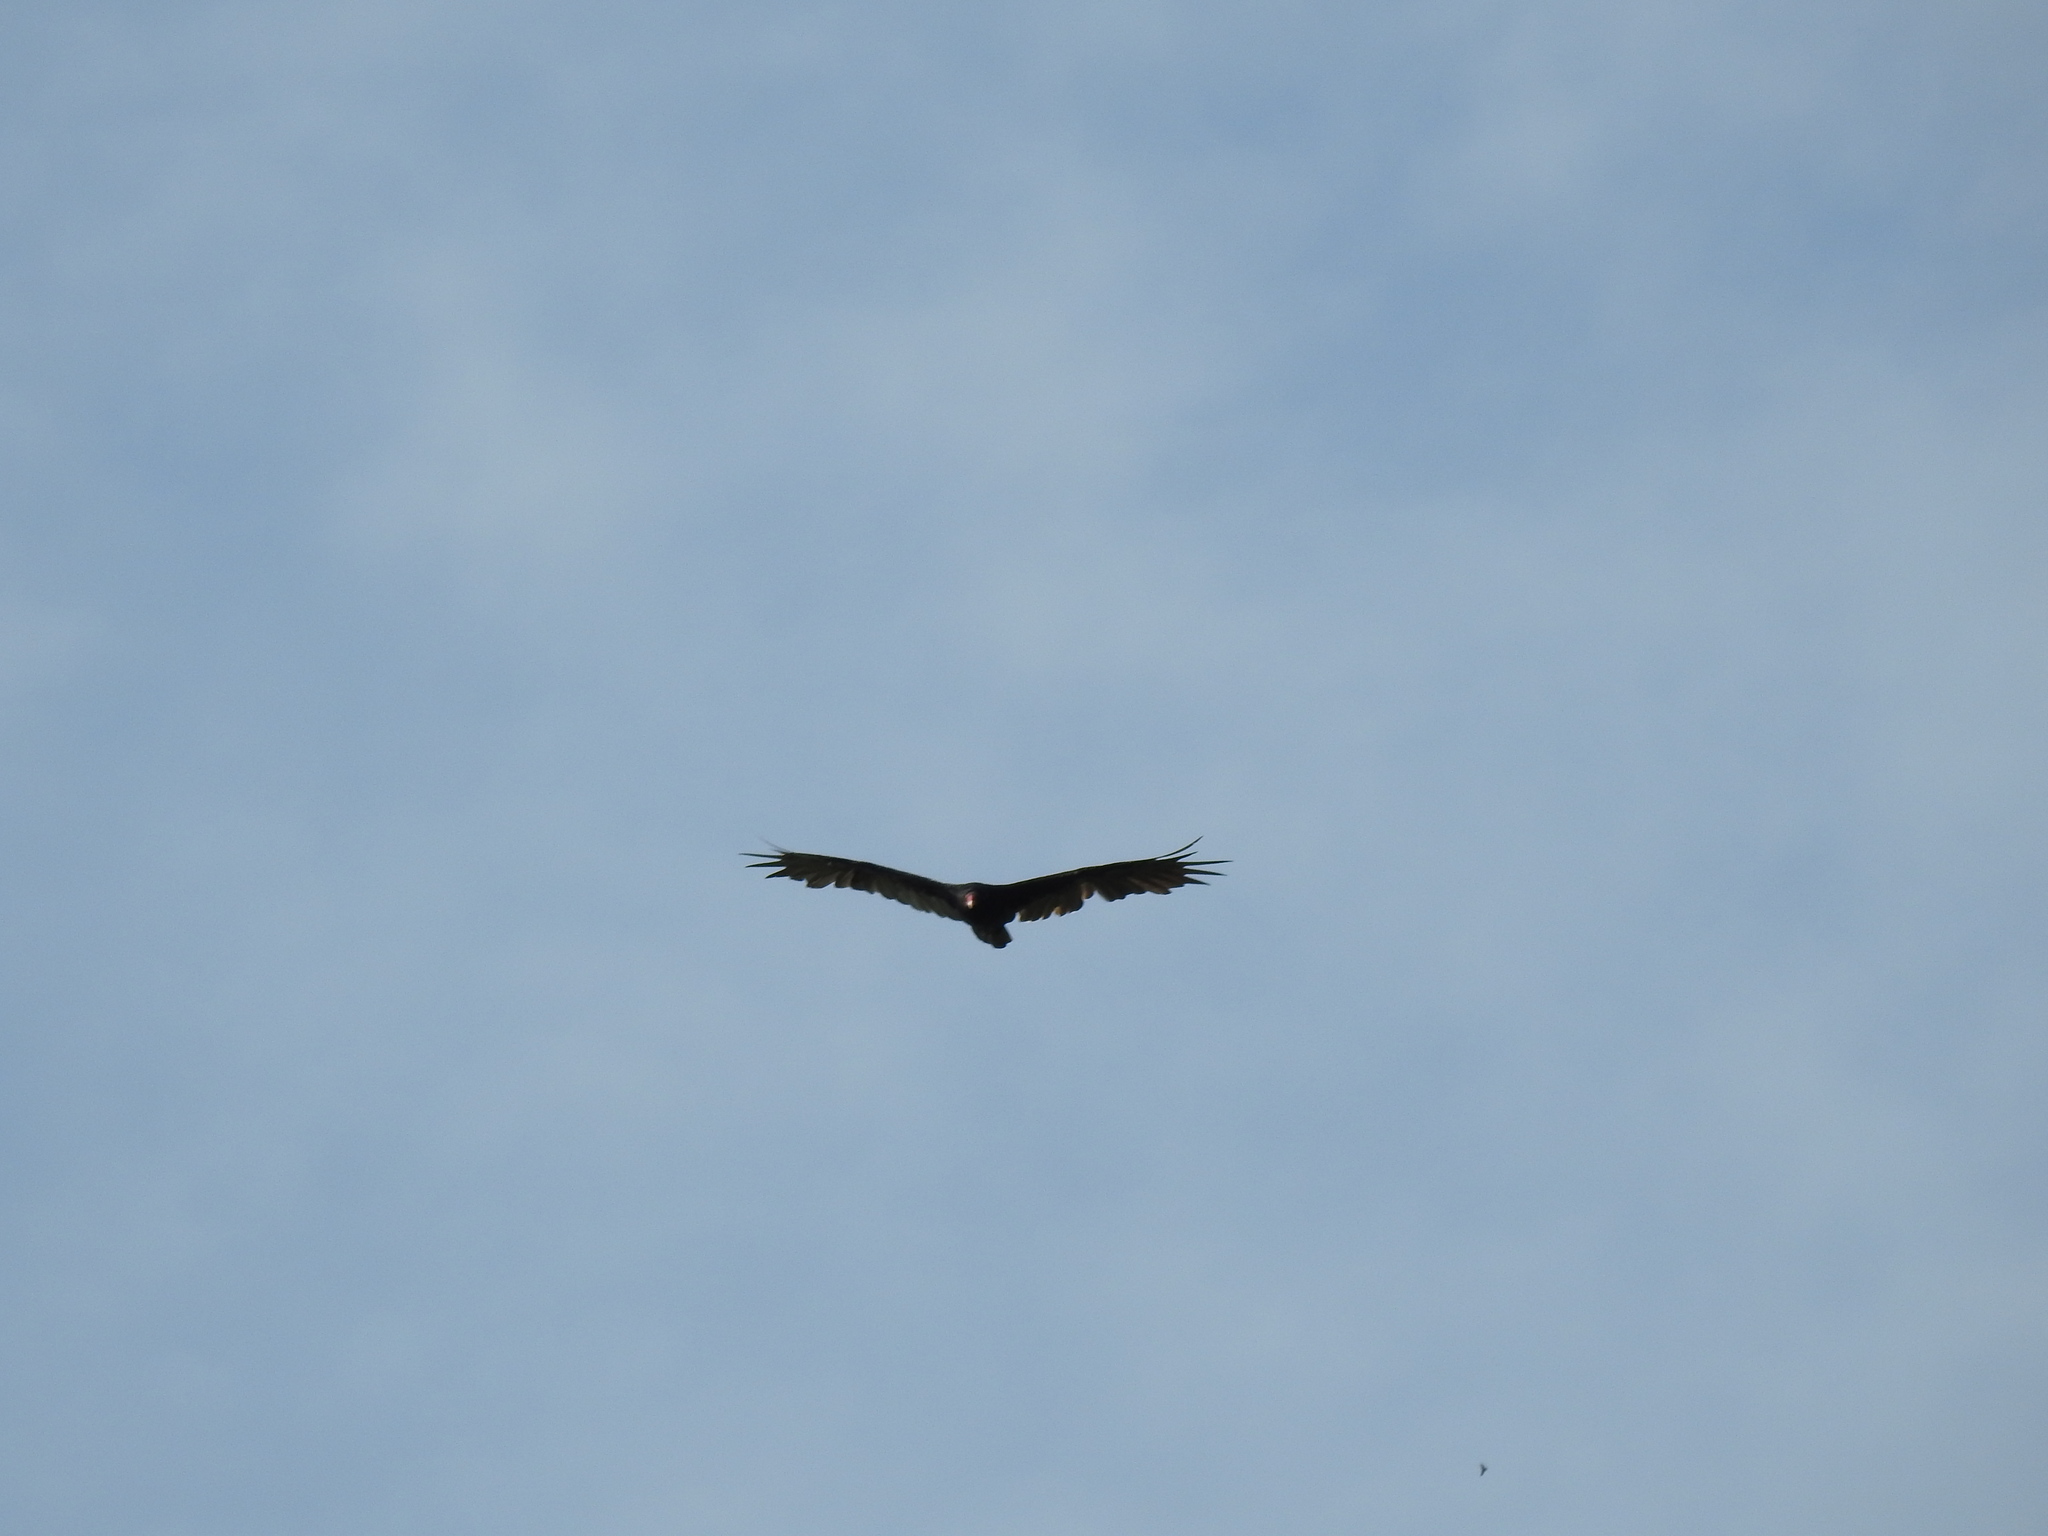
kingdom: Animalia
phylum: Chordata
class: Aves
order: Accipitriformes
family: Cathartidae
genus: Cathartes
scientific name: Cathartes aura
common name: Turkey vulture
